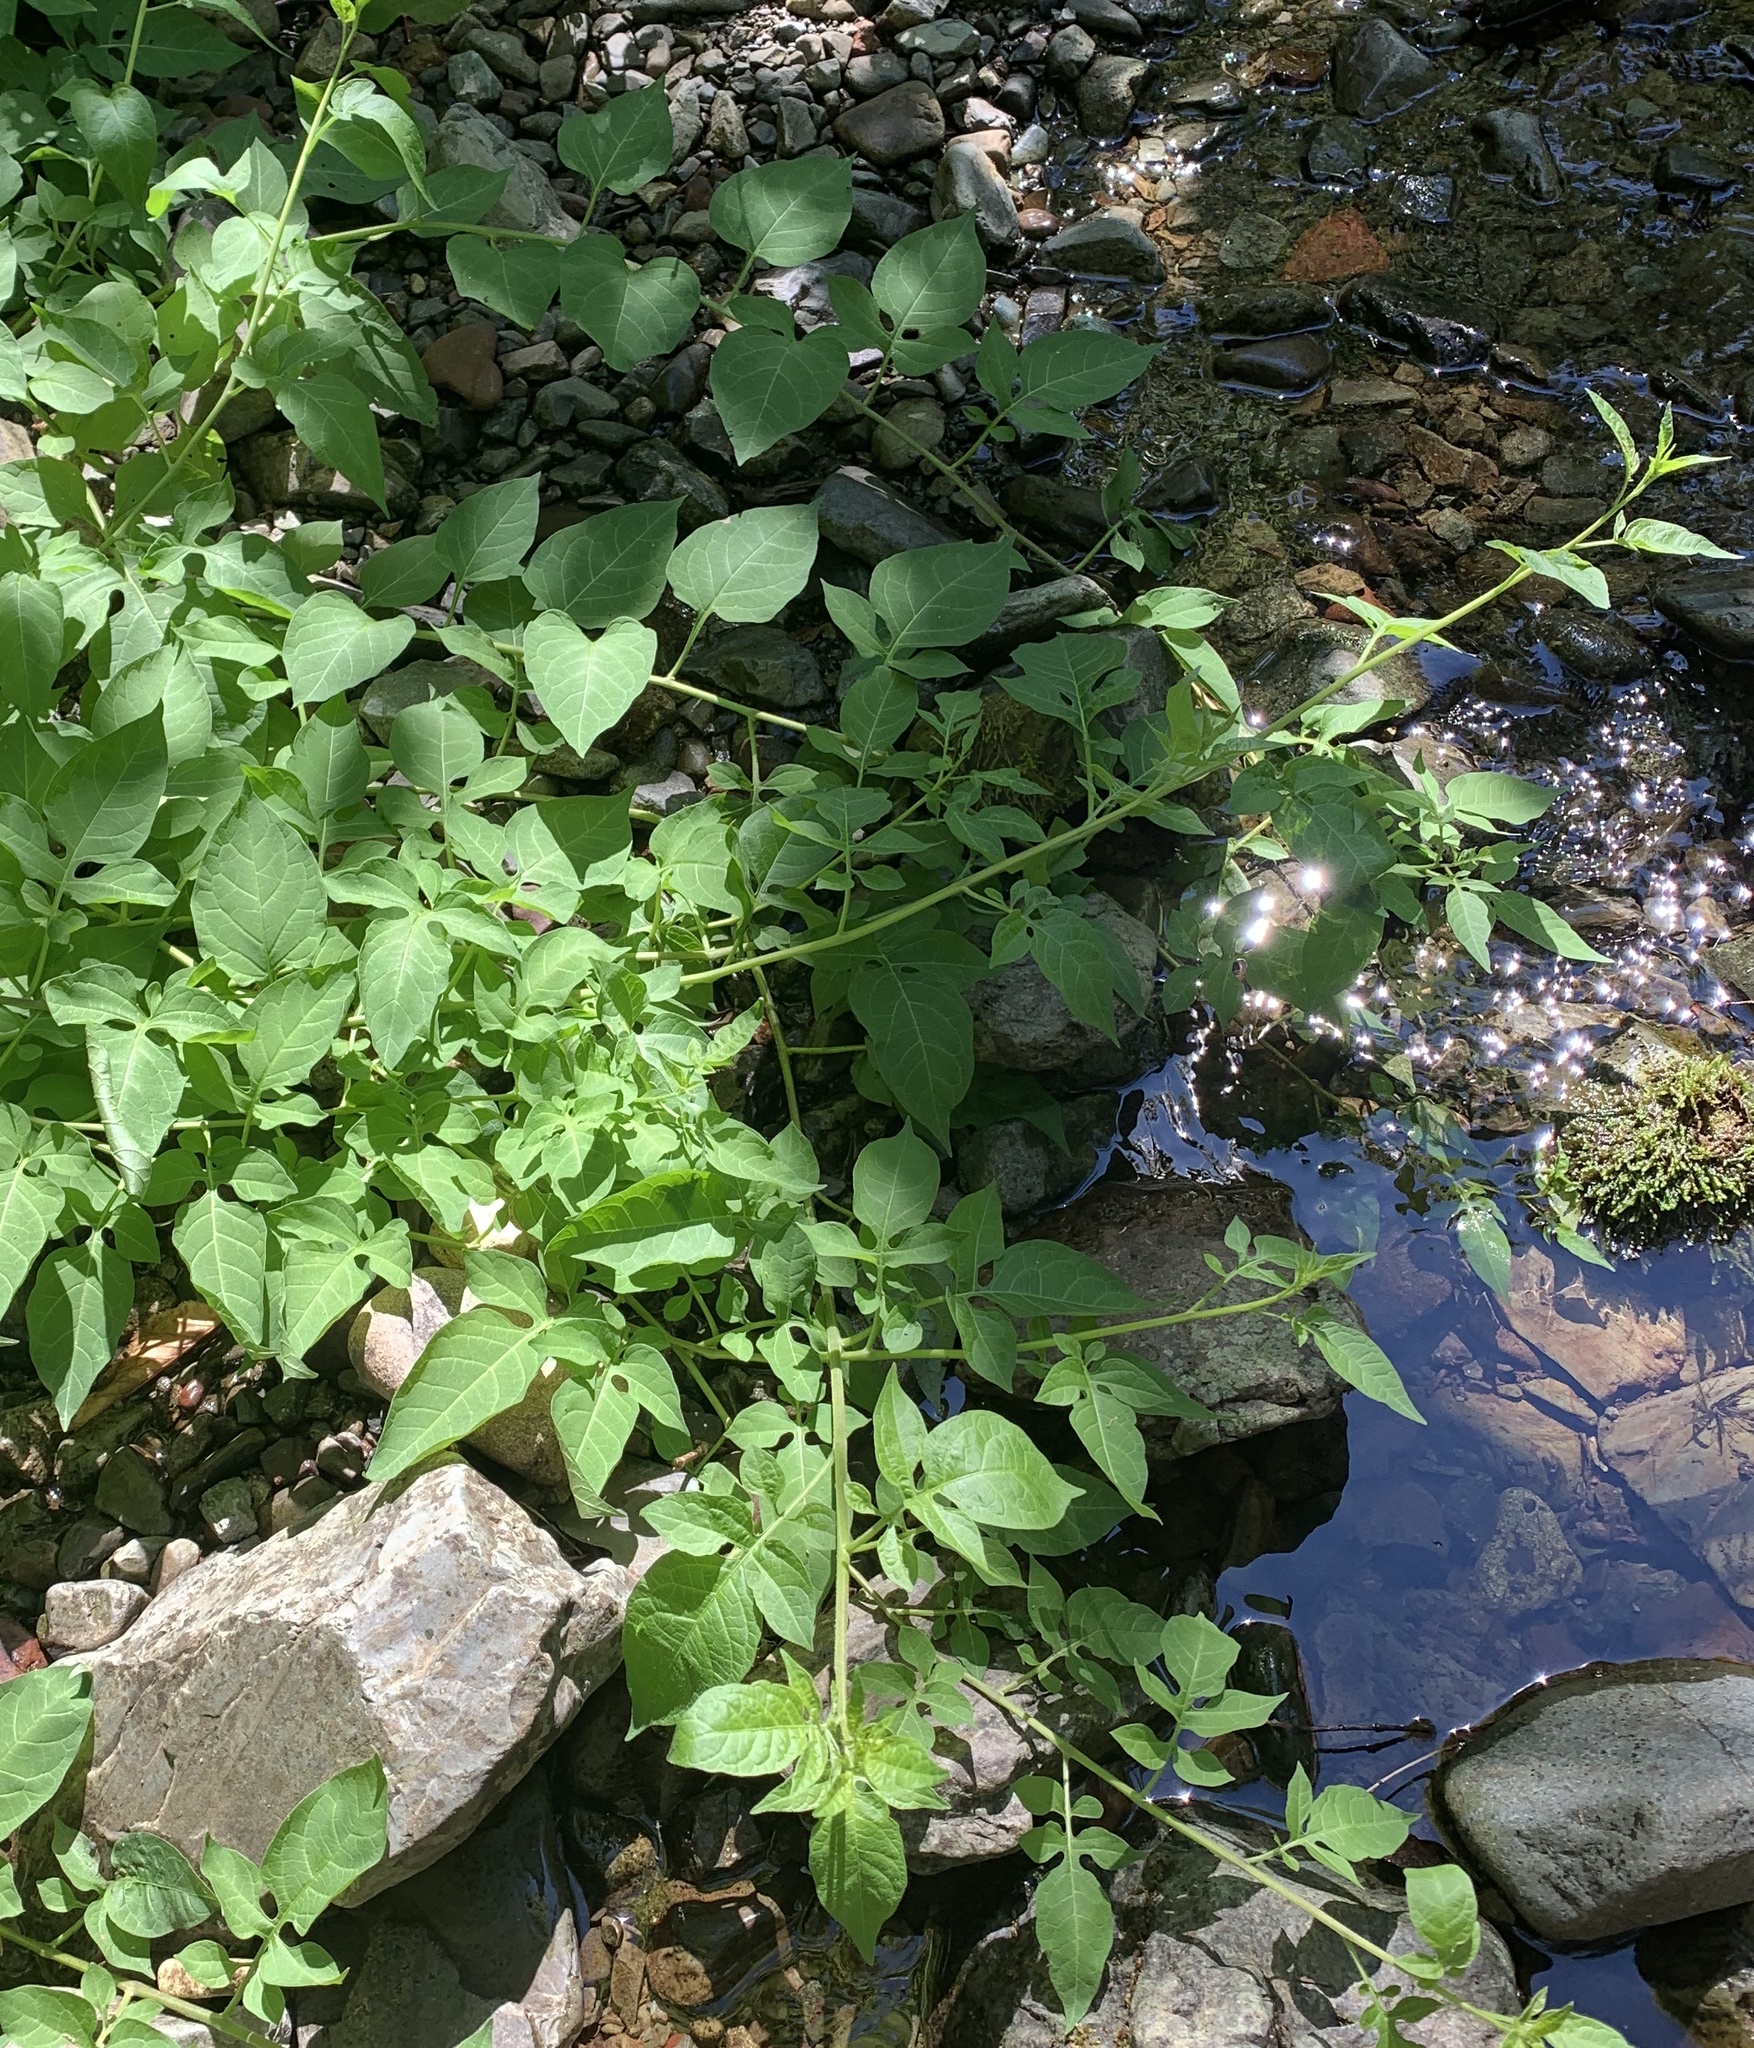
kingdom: Plantae
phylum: Tracheophyta
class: Magnoliopsida
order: Solanales
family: Solanaceae
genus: Solanum
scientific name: Solanum dulcamara
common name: Climbing nightshade
